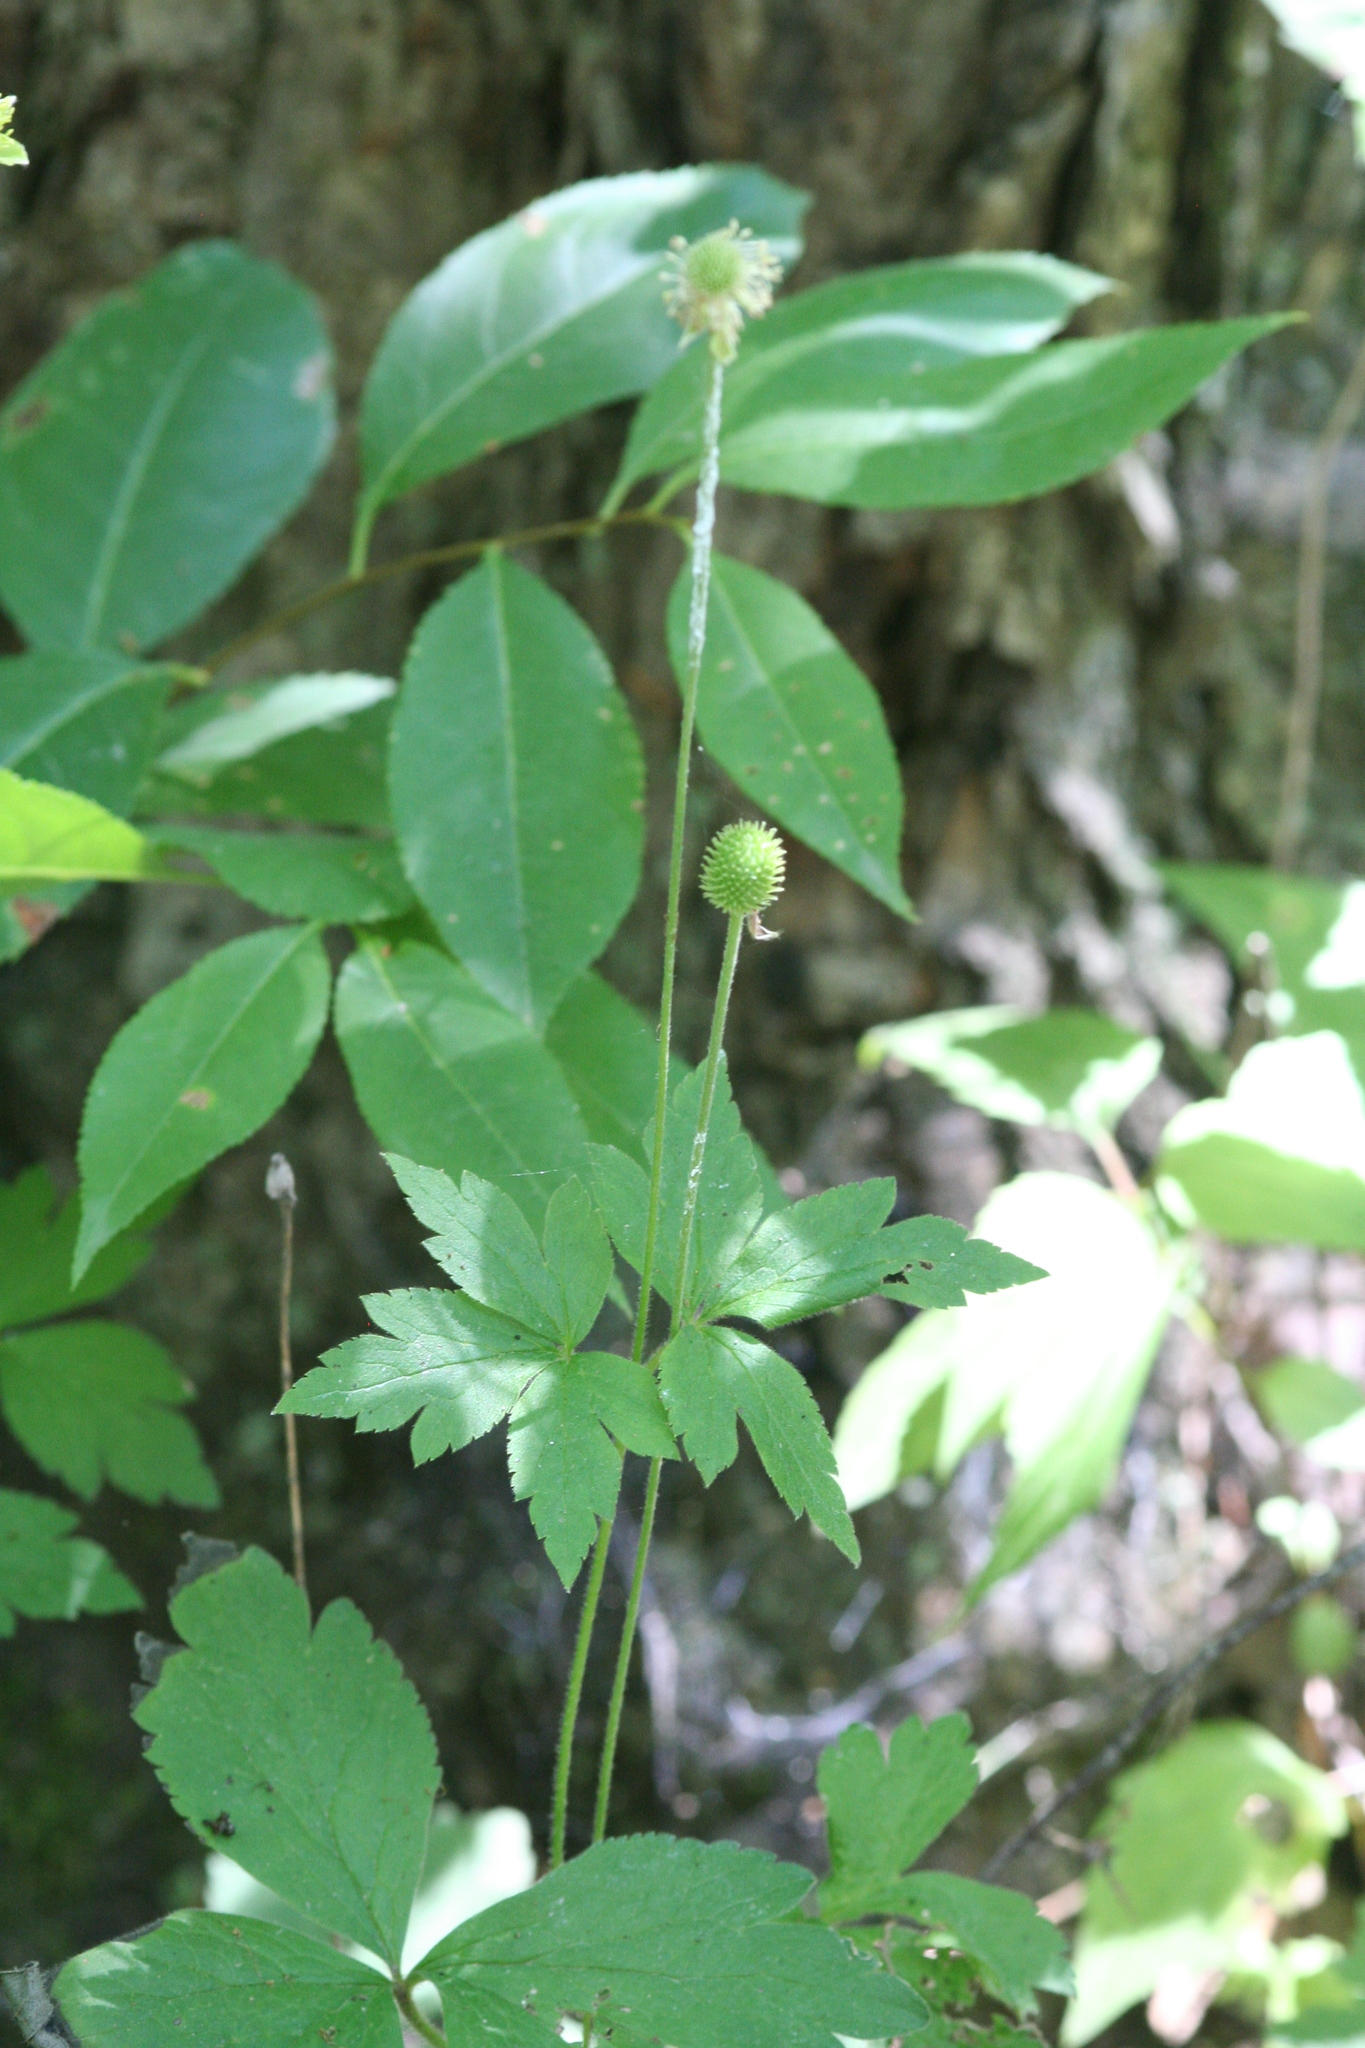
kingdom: Plantae
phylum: Tracheophyta
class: Magnoliopsida
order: Ranunculales
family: Ranunculaceae
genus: Anemone
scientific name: Anemone virginiana
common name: Tall anemone
